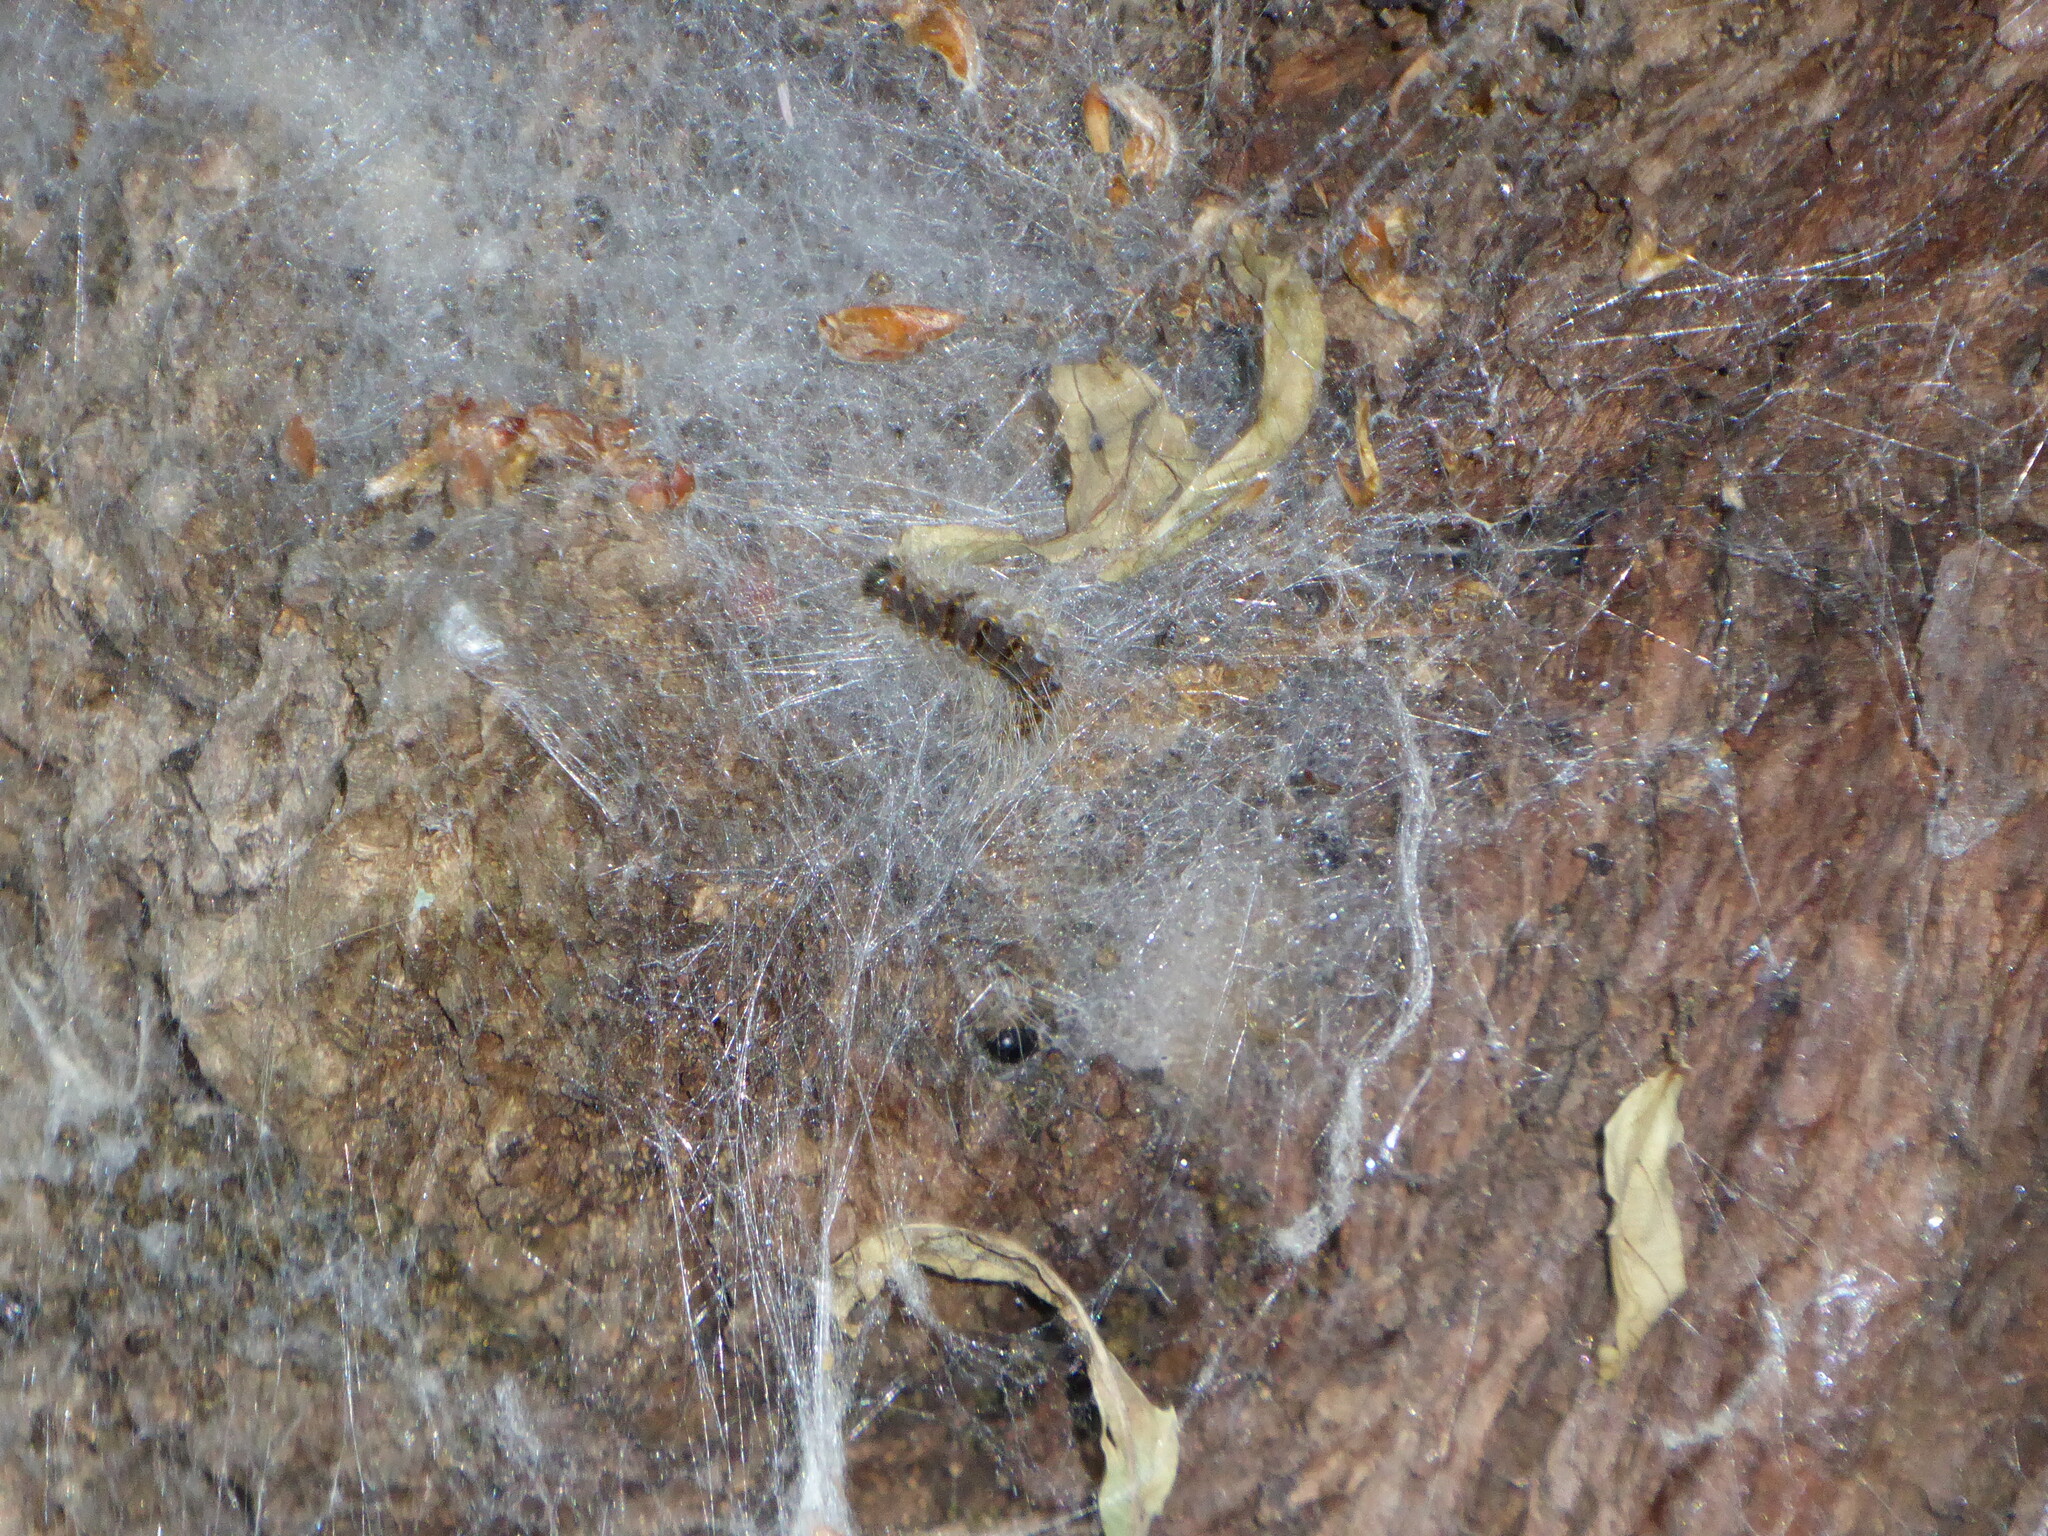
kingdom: Animalia
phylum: Arthropoda
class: Insecta
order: Lepidoptera
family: Notodontidae
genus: Thaumetopoea
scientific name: Thaumetopoea processionea
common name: Oak processionea
